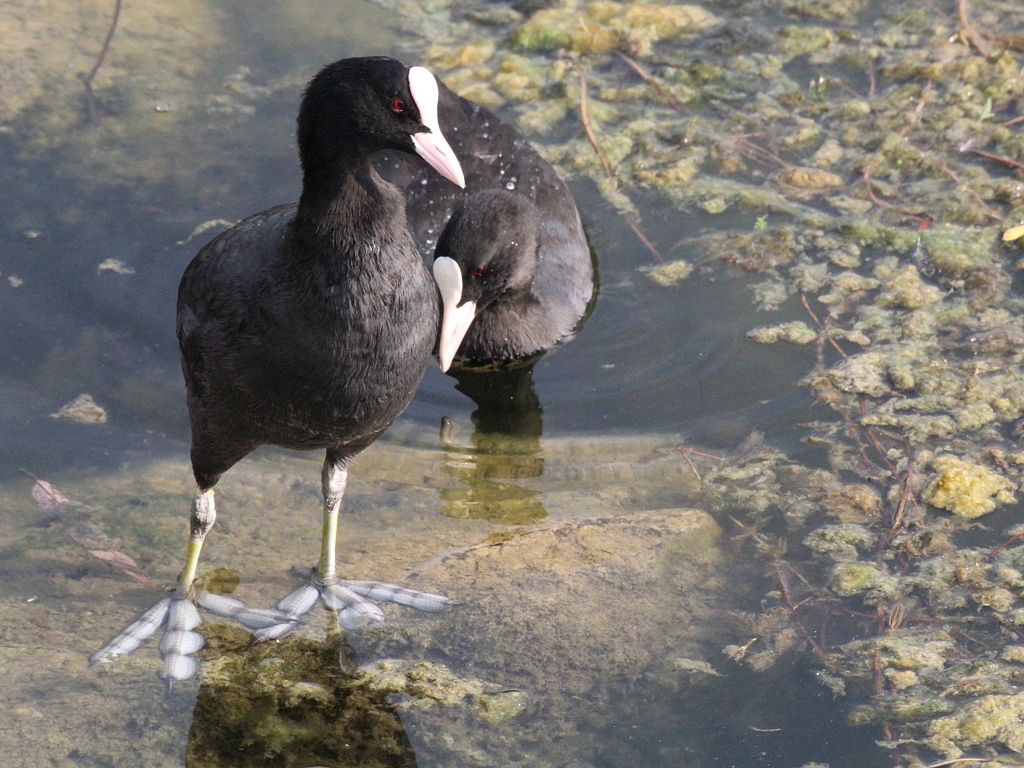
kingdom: Animalia
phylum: Chordata
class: Aves
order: Gruiformes
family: Rallidae
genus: Fulica
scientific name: Fulica atra
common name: Eurasian coot
